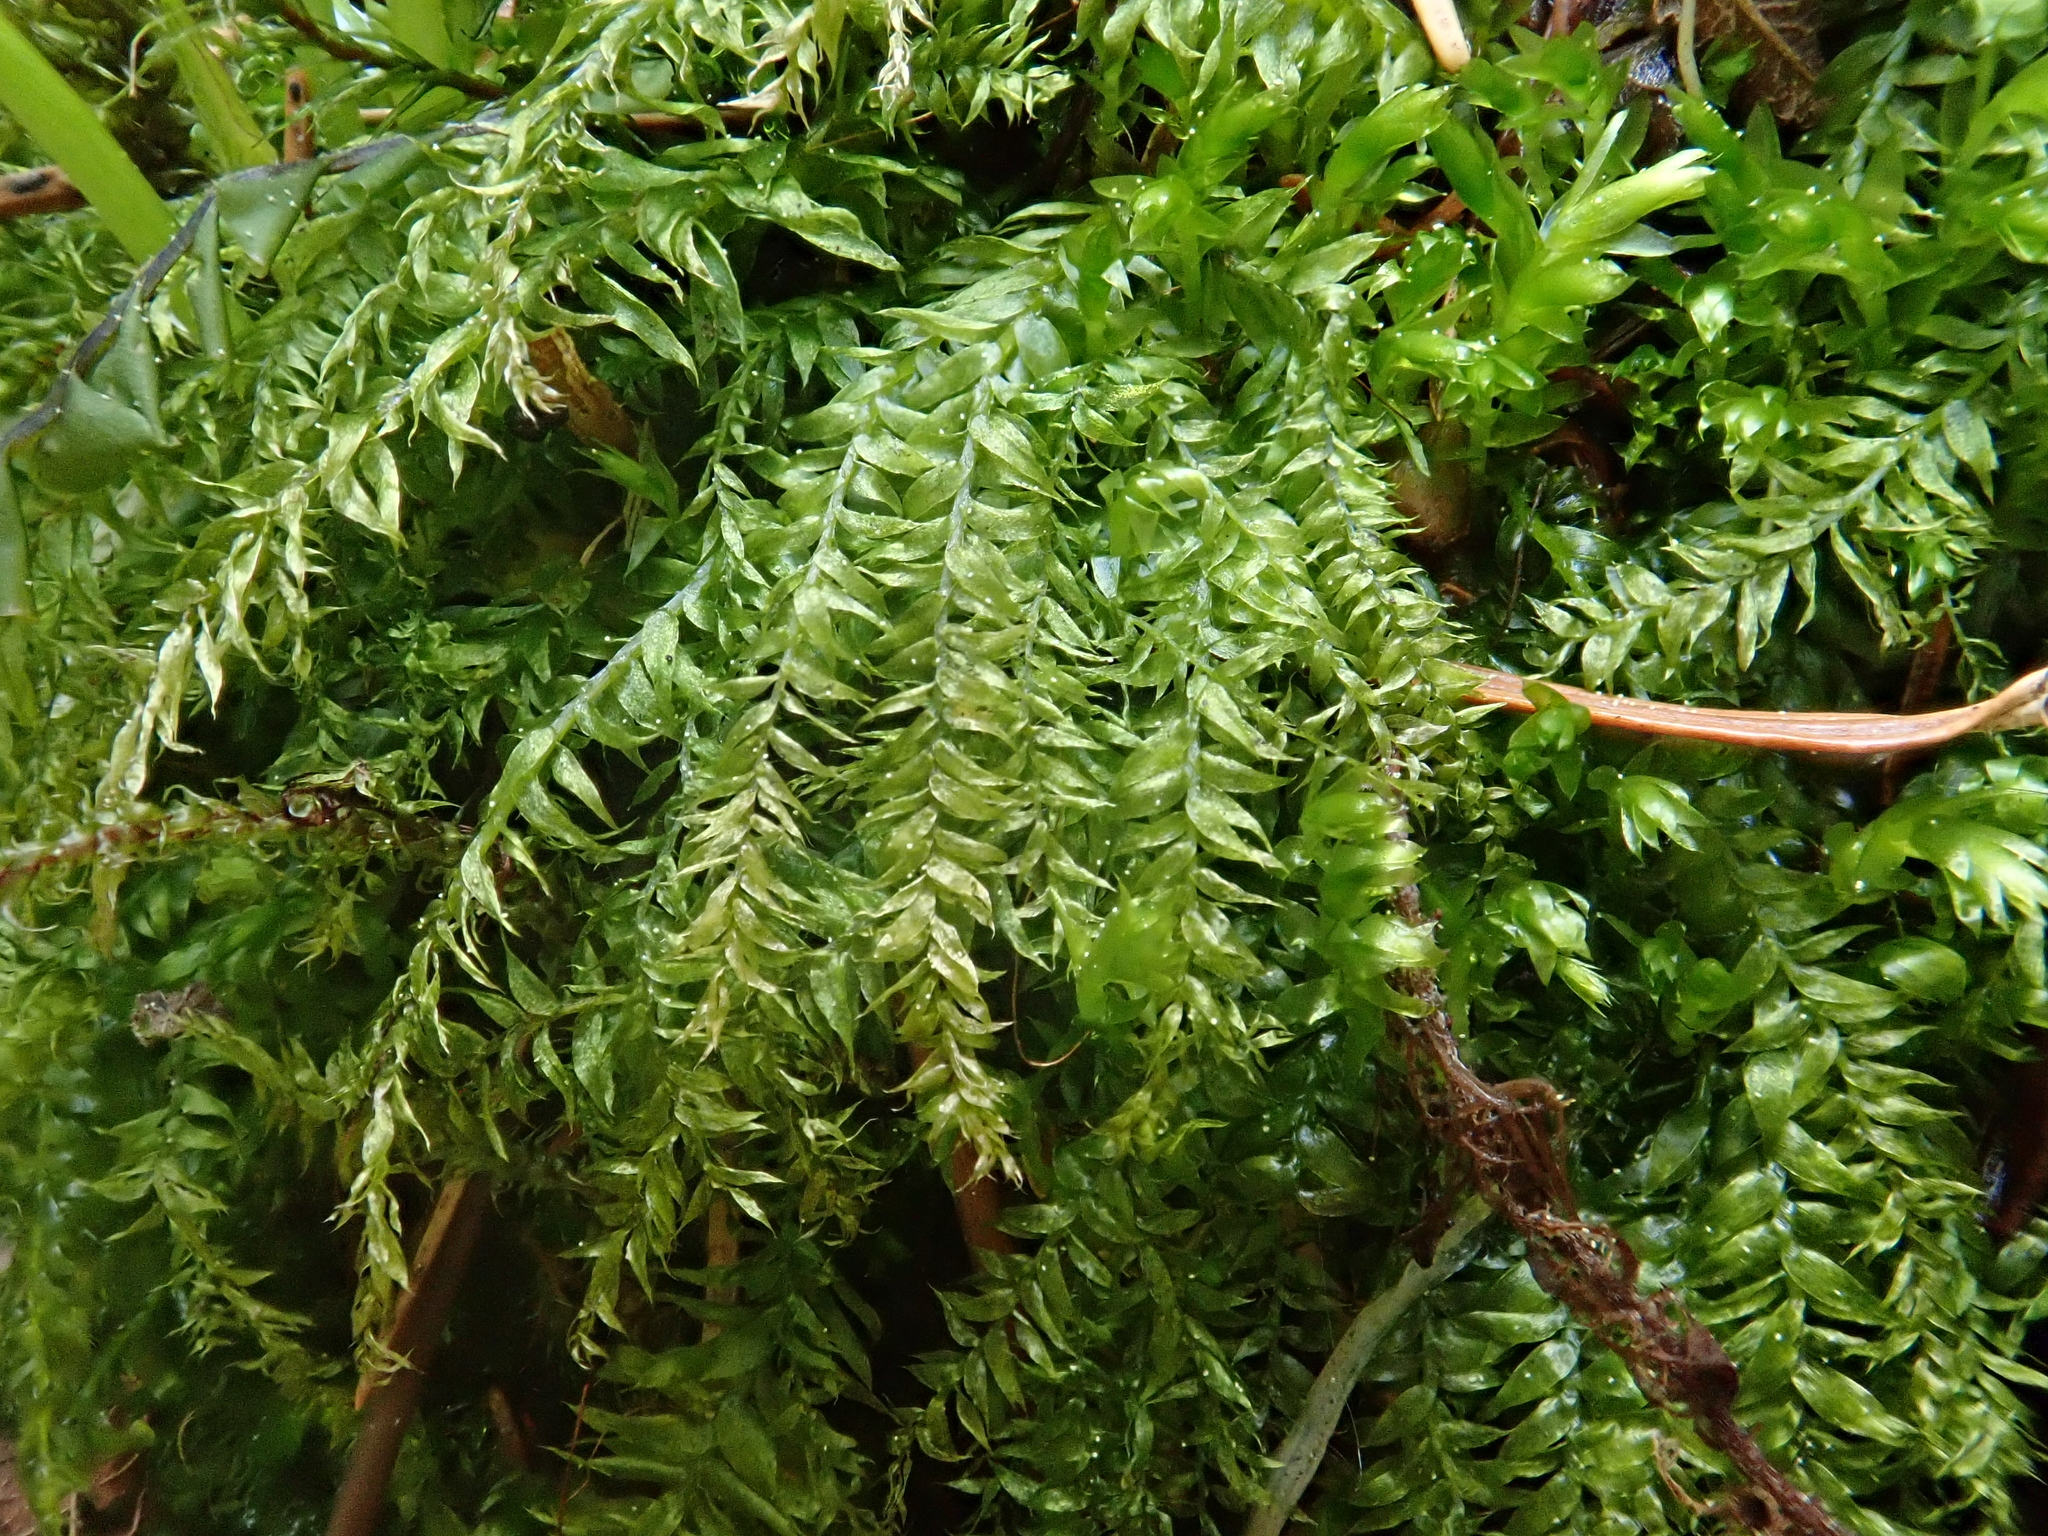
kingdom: Plantae
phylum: Bryophyta
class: Bryopsida
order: Hypnales
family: Plagiotheciaceae
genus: Plagiothecium
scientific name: Plagiothecium succulentum
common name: Juicy silk-moss
